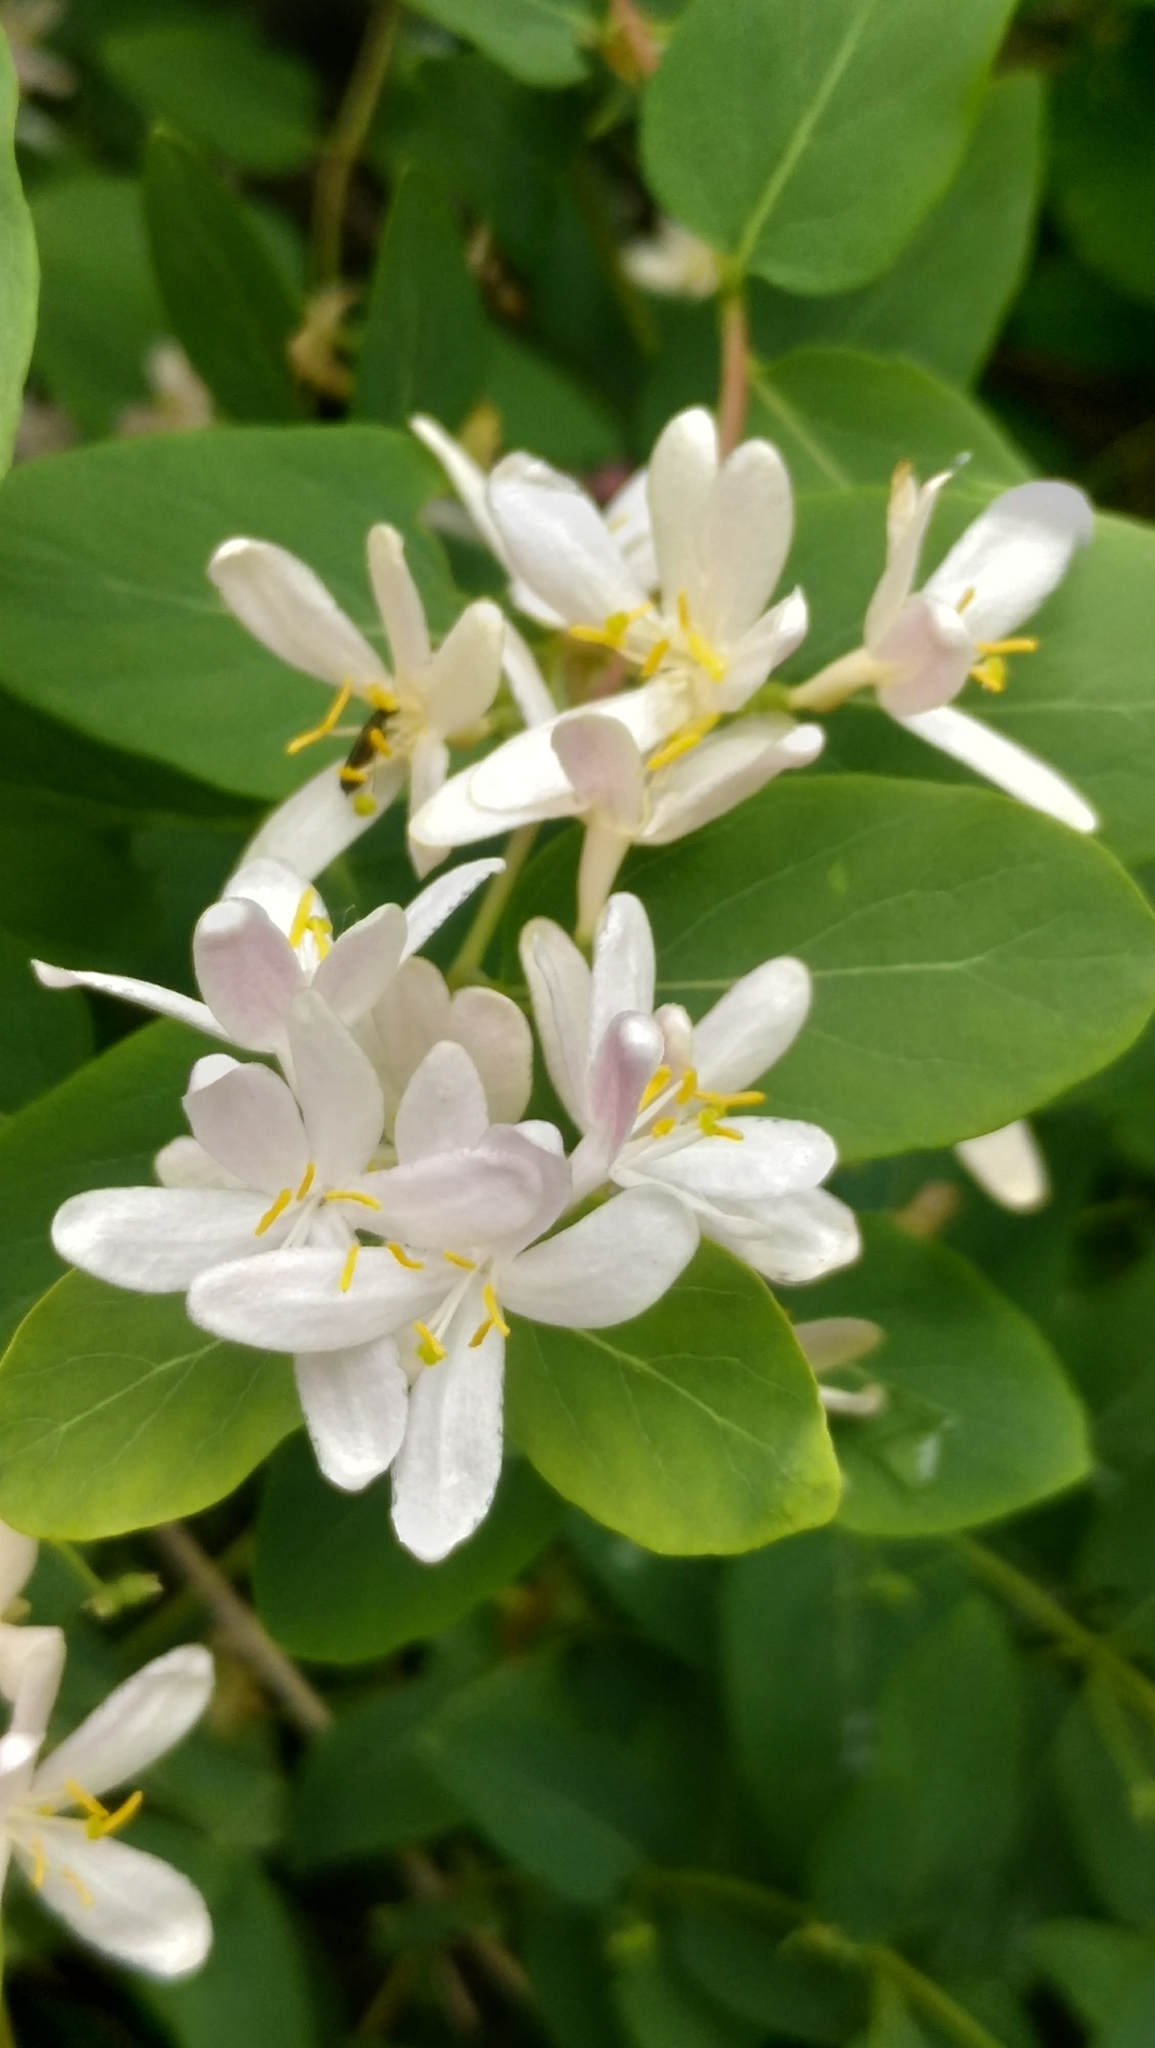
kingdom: Plantae
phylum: Tracheophyta
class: Magnoliopsida
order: Dipsacales
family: Caprifoliaceae
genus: Lonicera
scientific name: Lonicera tatarica
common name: Tatarian honeysuckle
